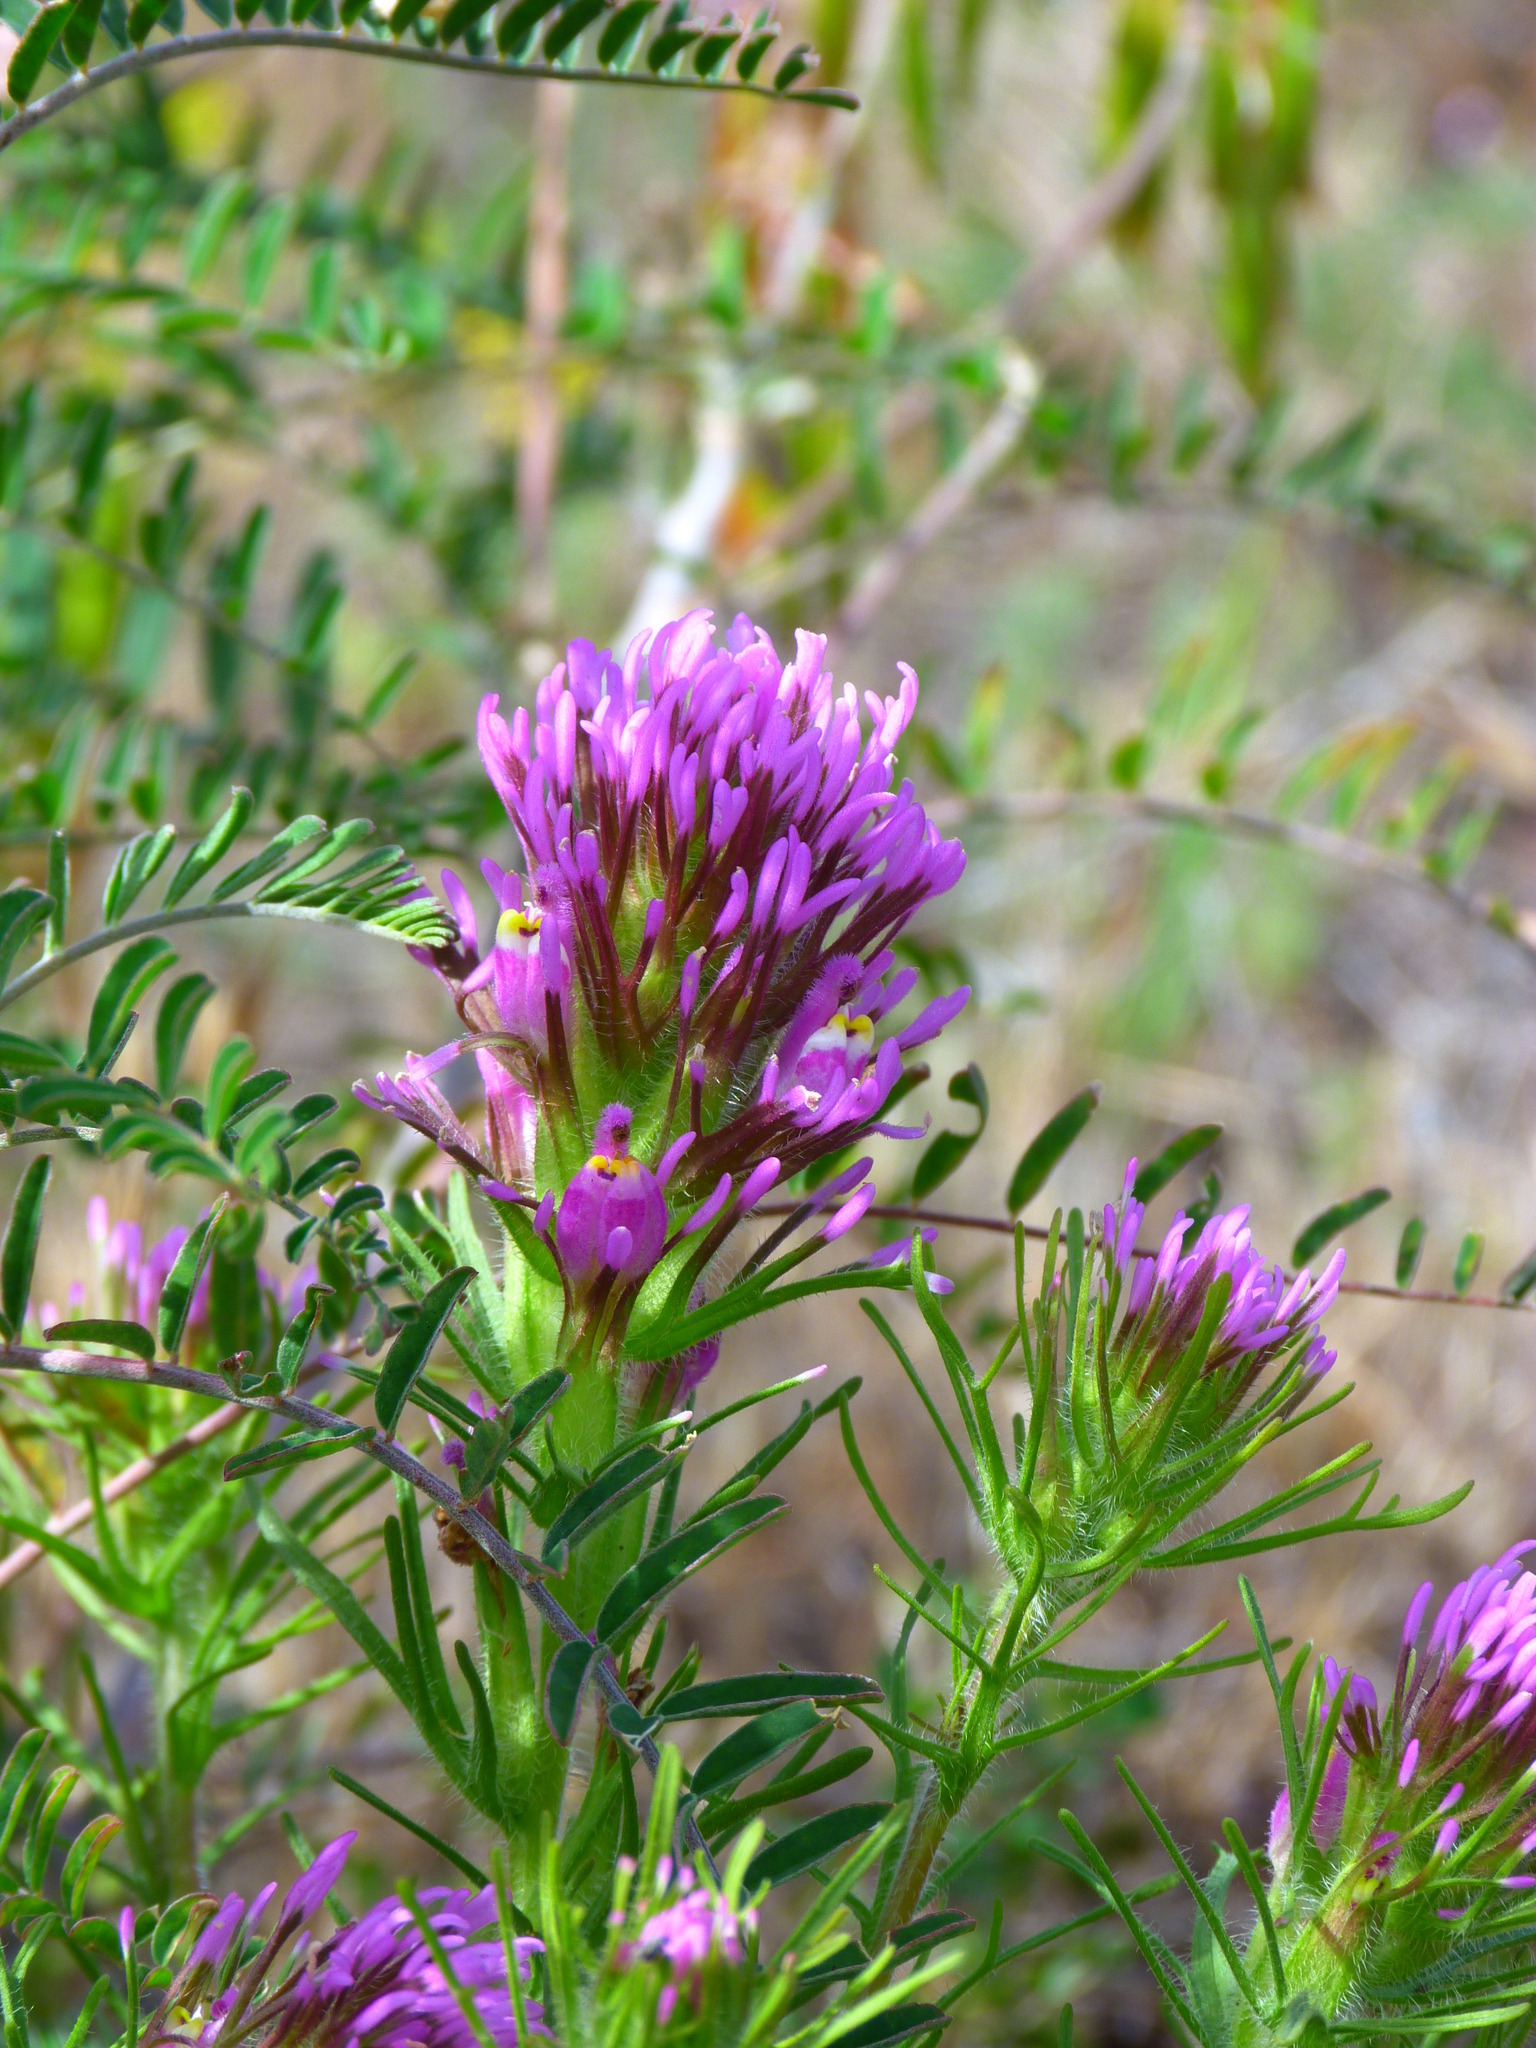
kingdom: Plantae
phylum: Tracheophyta
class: Magnoliopsida
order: Lamiales
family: Orobanchaceae
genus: Castilleja
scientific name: Castilleja exserta
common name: Purple owl-clover
